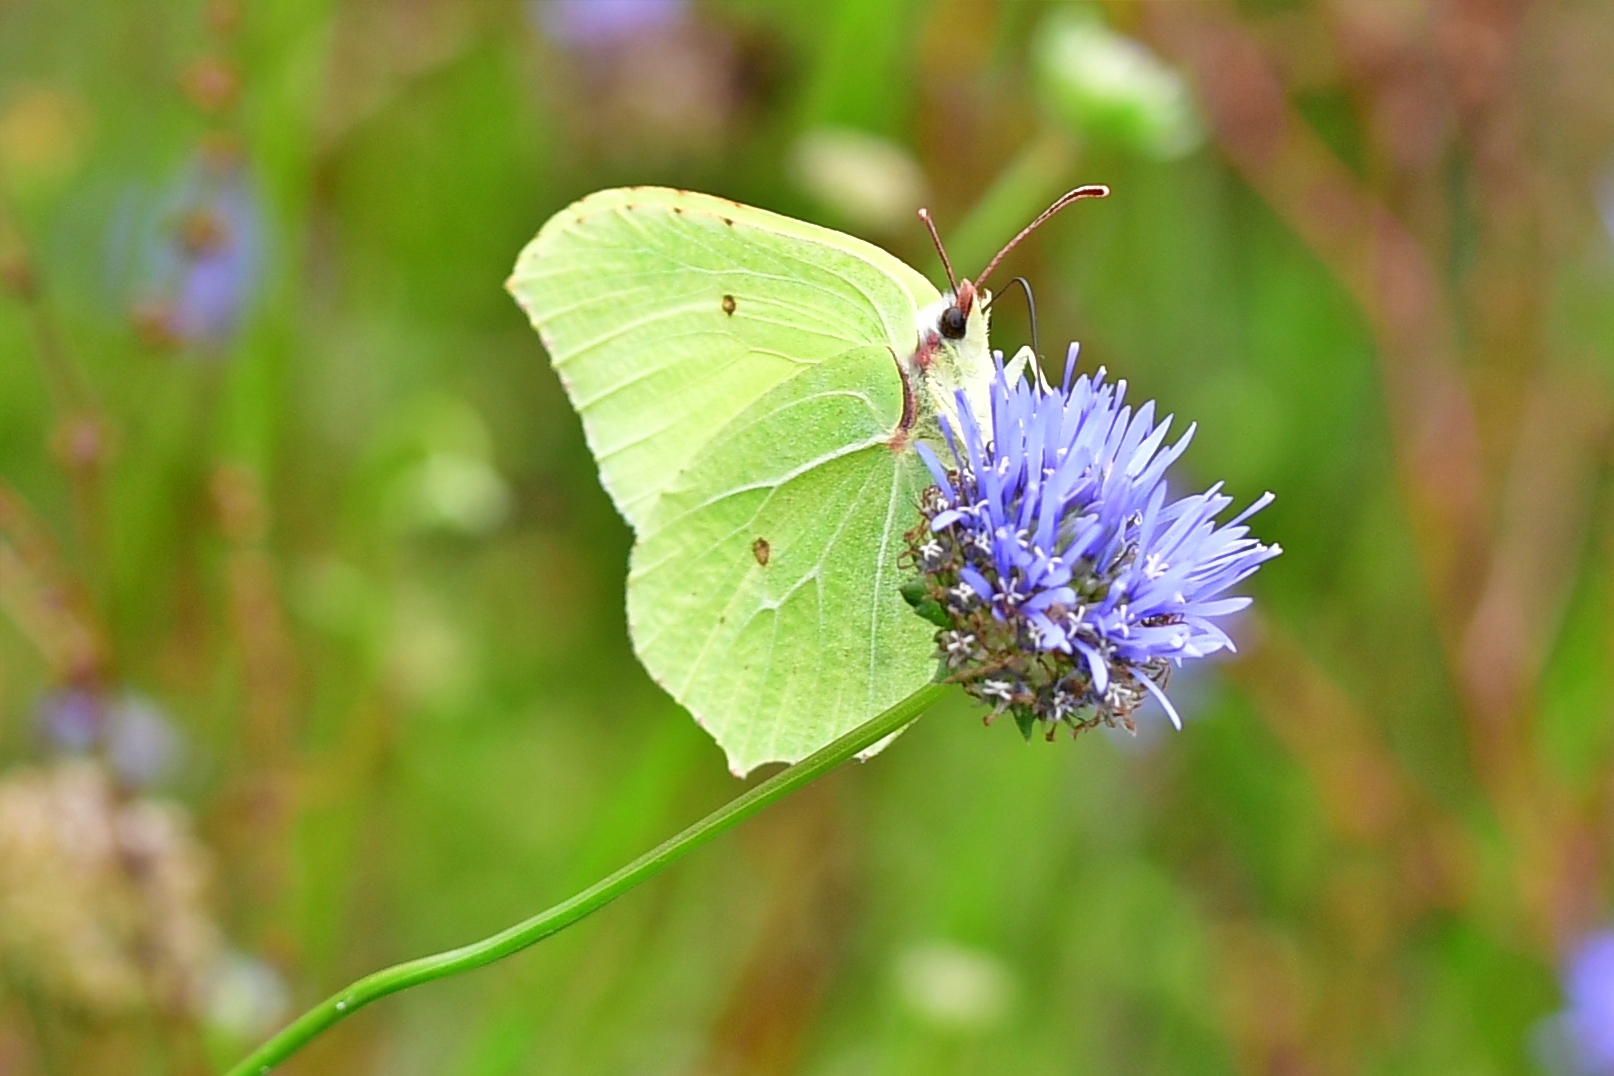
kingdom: Animalia
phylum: Arthropoda
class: Insecta
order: Lepidoptera
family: Pieridae
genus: Gonepteryx
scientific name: Gonepteryx rhamni
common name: Brimstone
